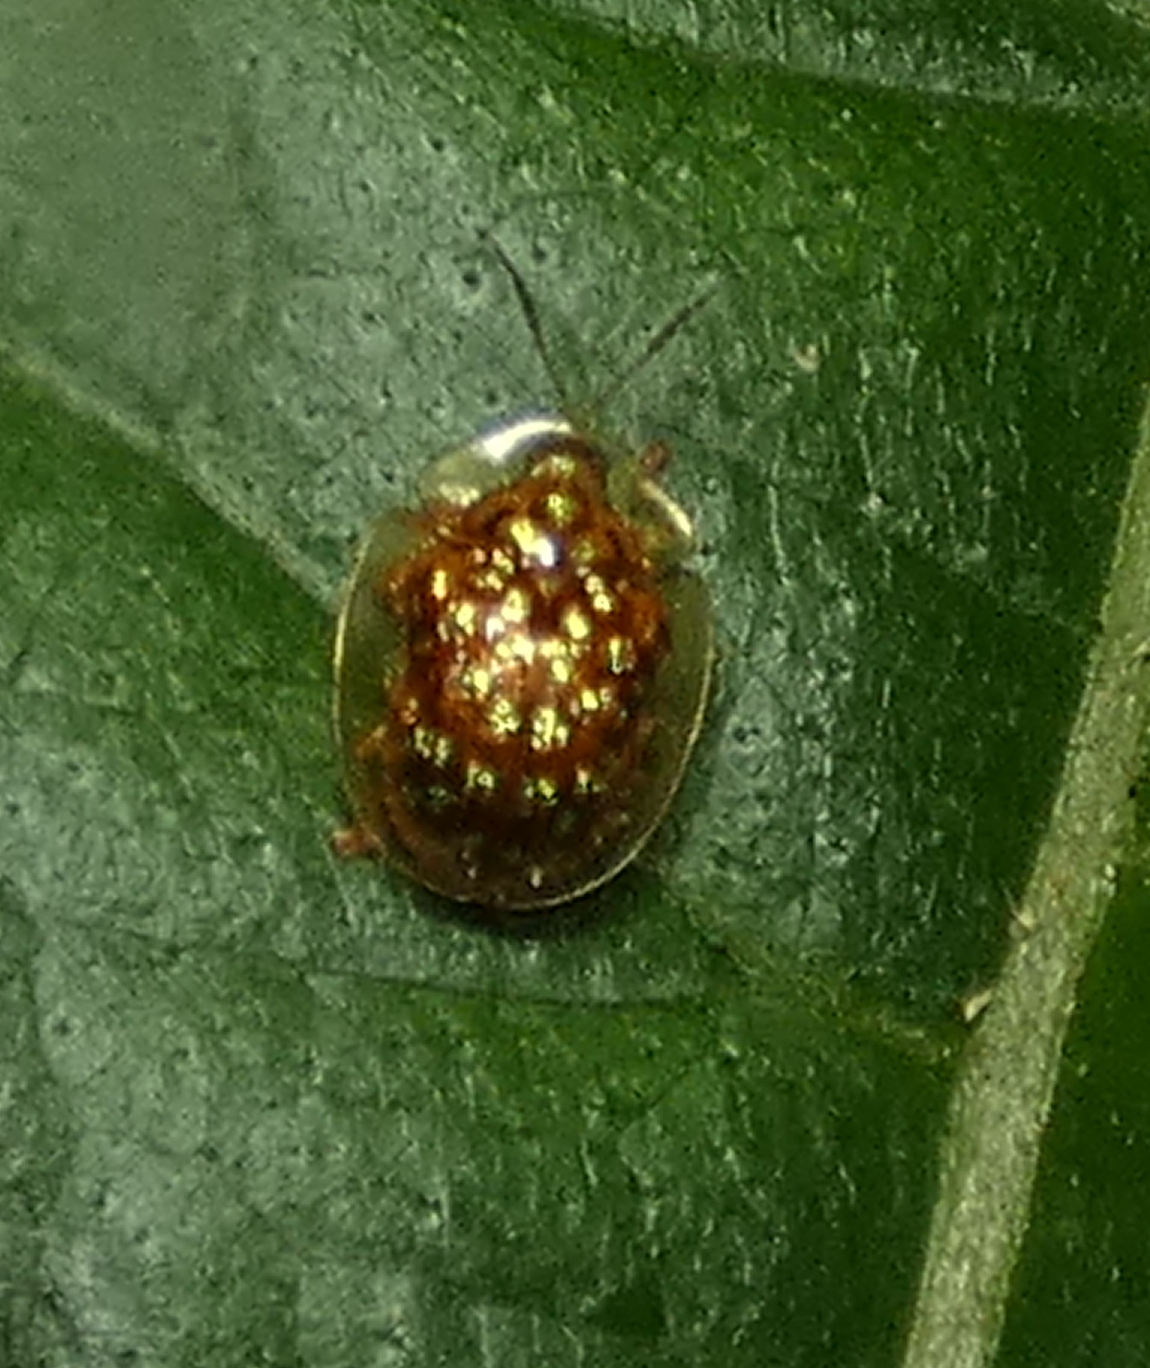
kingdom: Animalia
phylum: Arthropoda
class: Insecta
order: Coleoptera
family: Chrysomelidae
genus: Cteisella
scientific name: Cteisella guttigera
